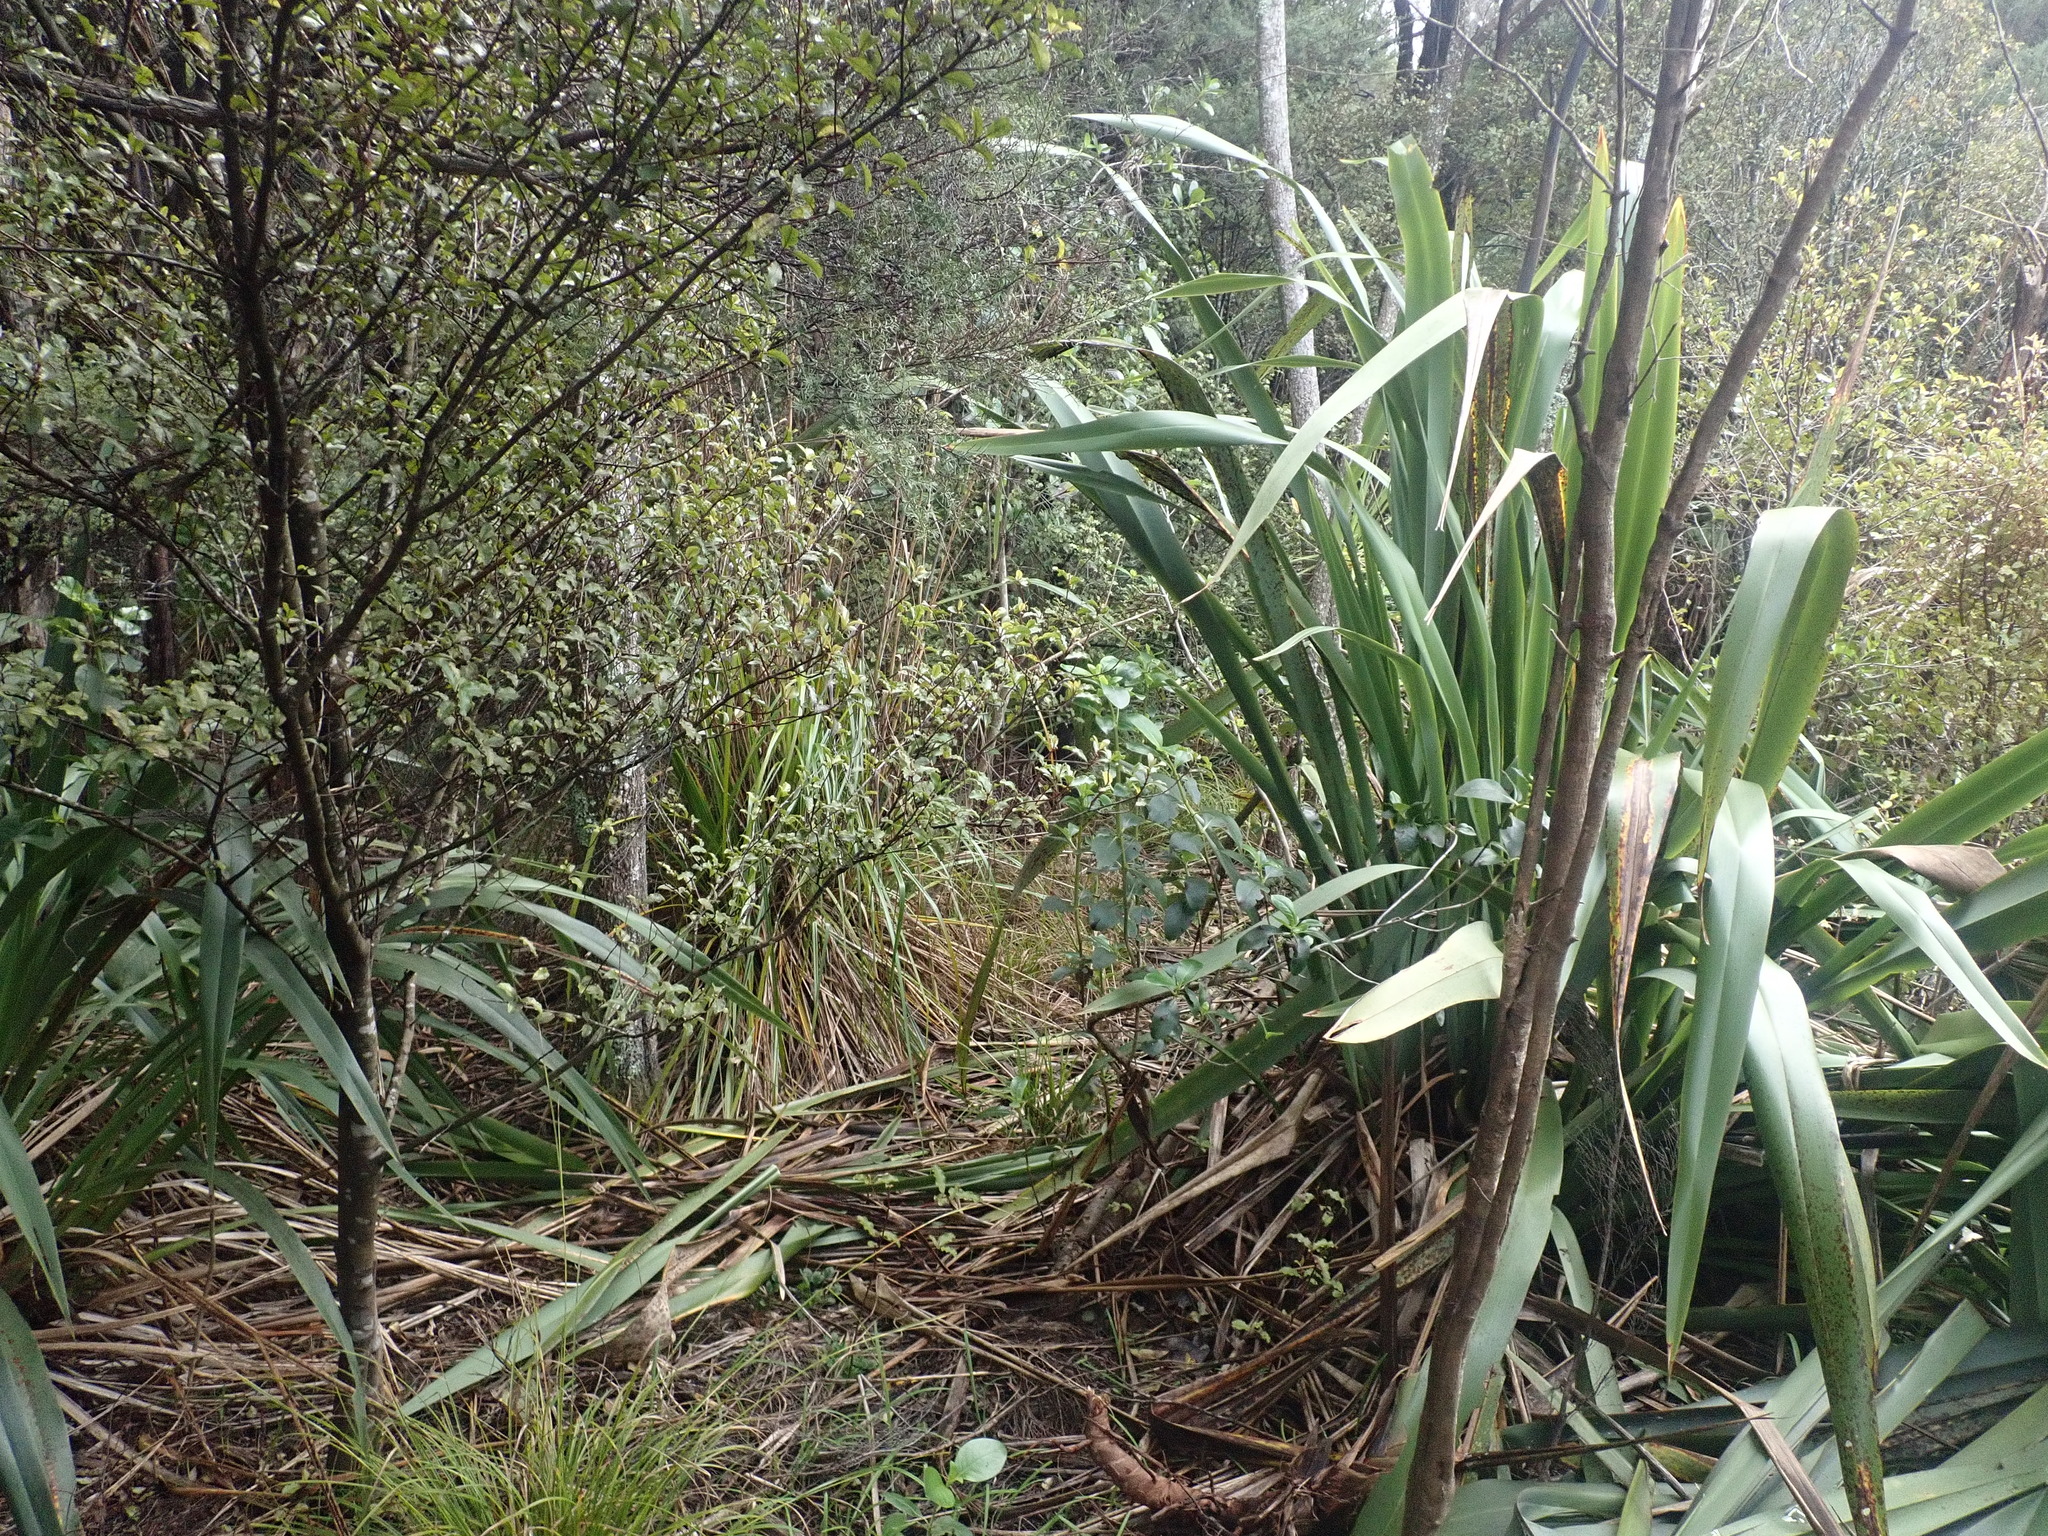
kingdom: Plantae
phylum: Tracheophyta
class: Magnoliopsida
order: Ericales
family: Primulaceae
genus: Myrsine
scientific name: Myrsine australis
